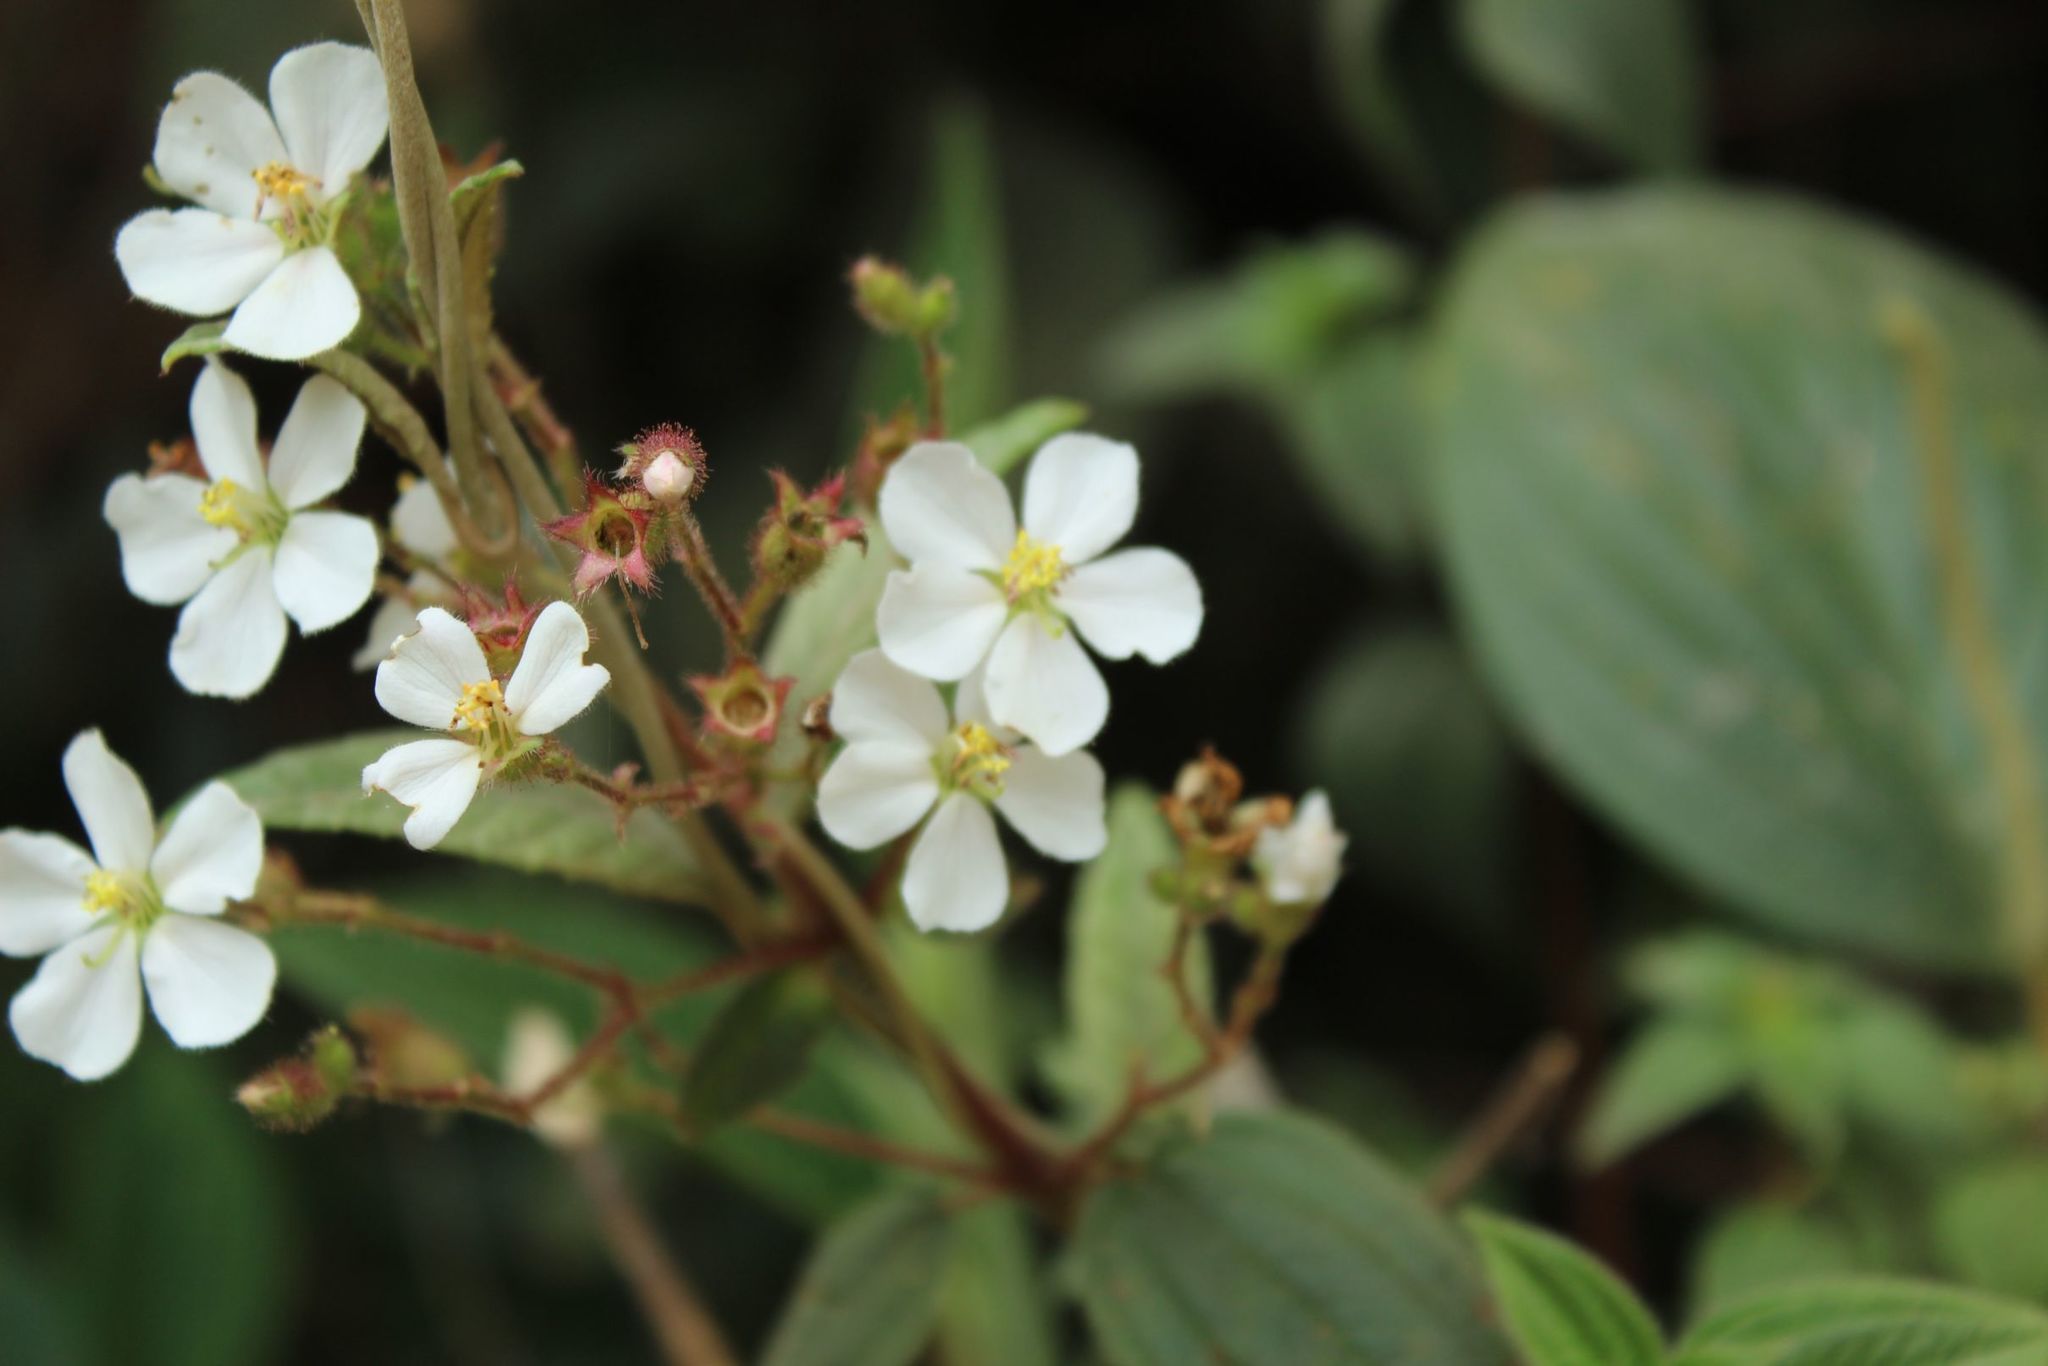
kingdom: Plantae
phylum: Tracheophyta
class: Magnoliopsida
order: Myrtales
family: Melastomataceae
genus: Chaetogastra
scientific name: Chaetogastra ciliaris
